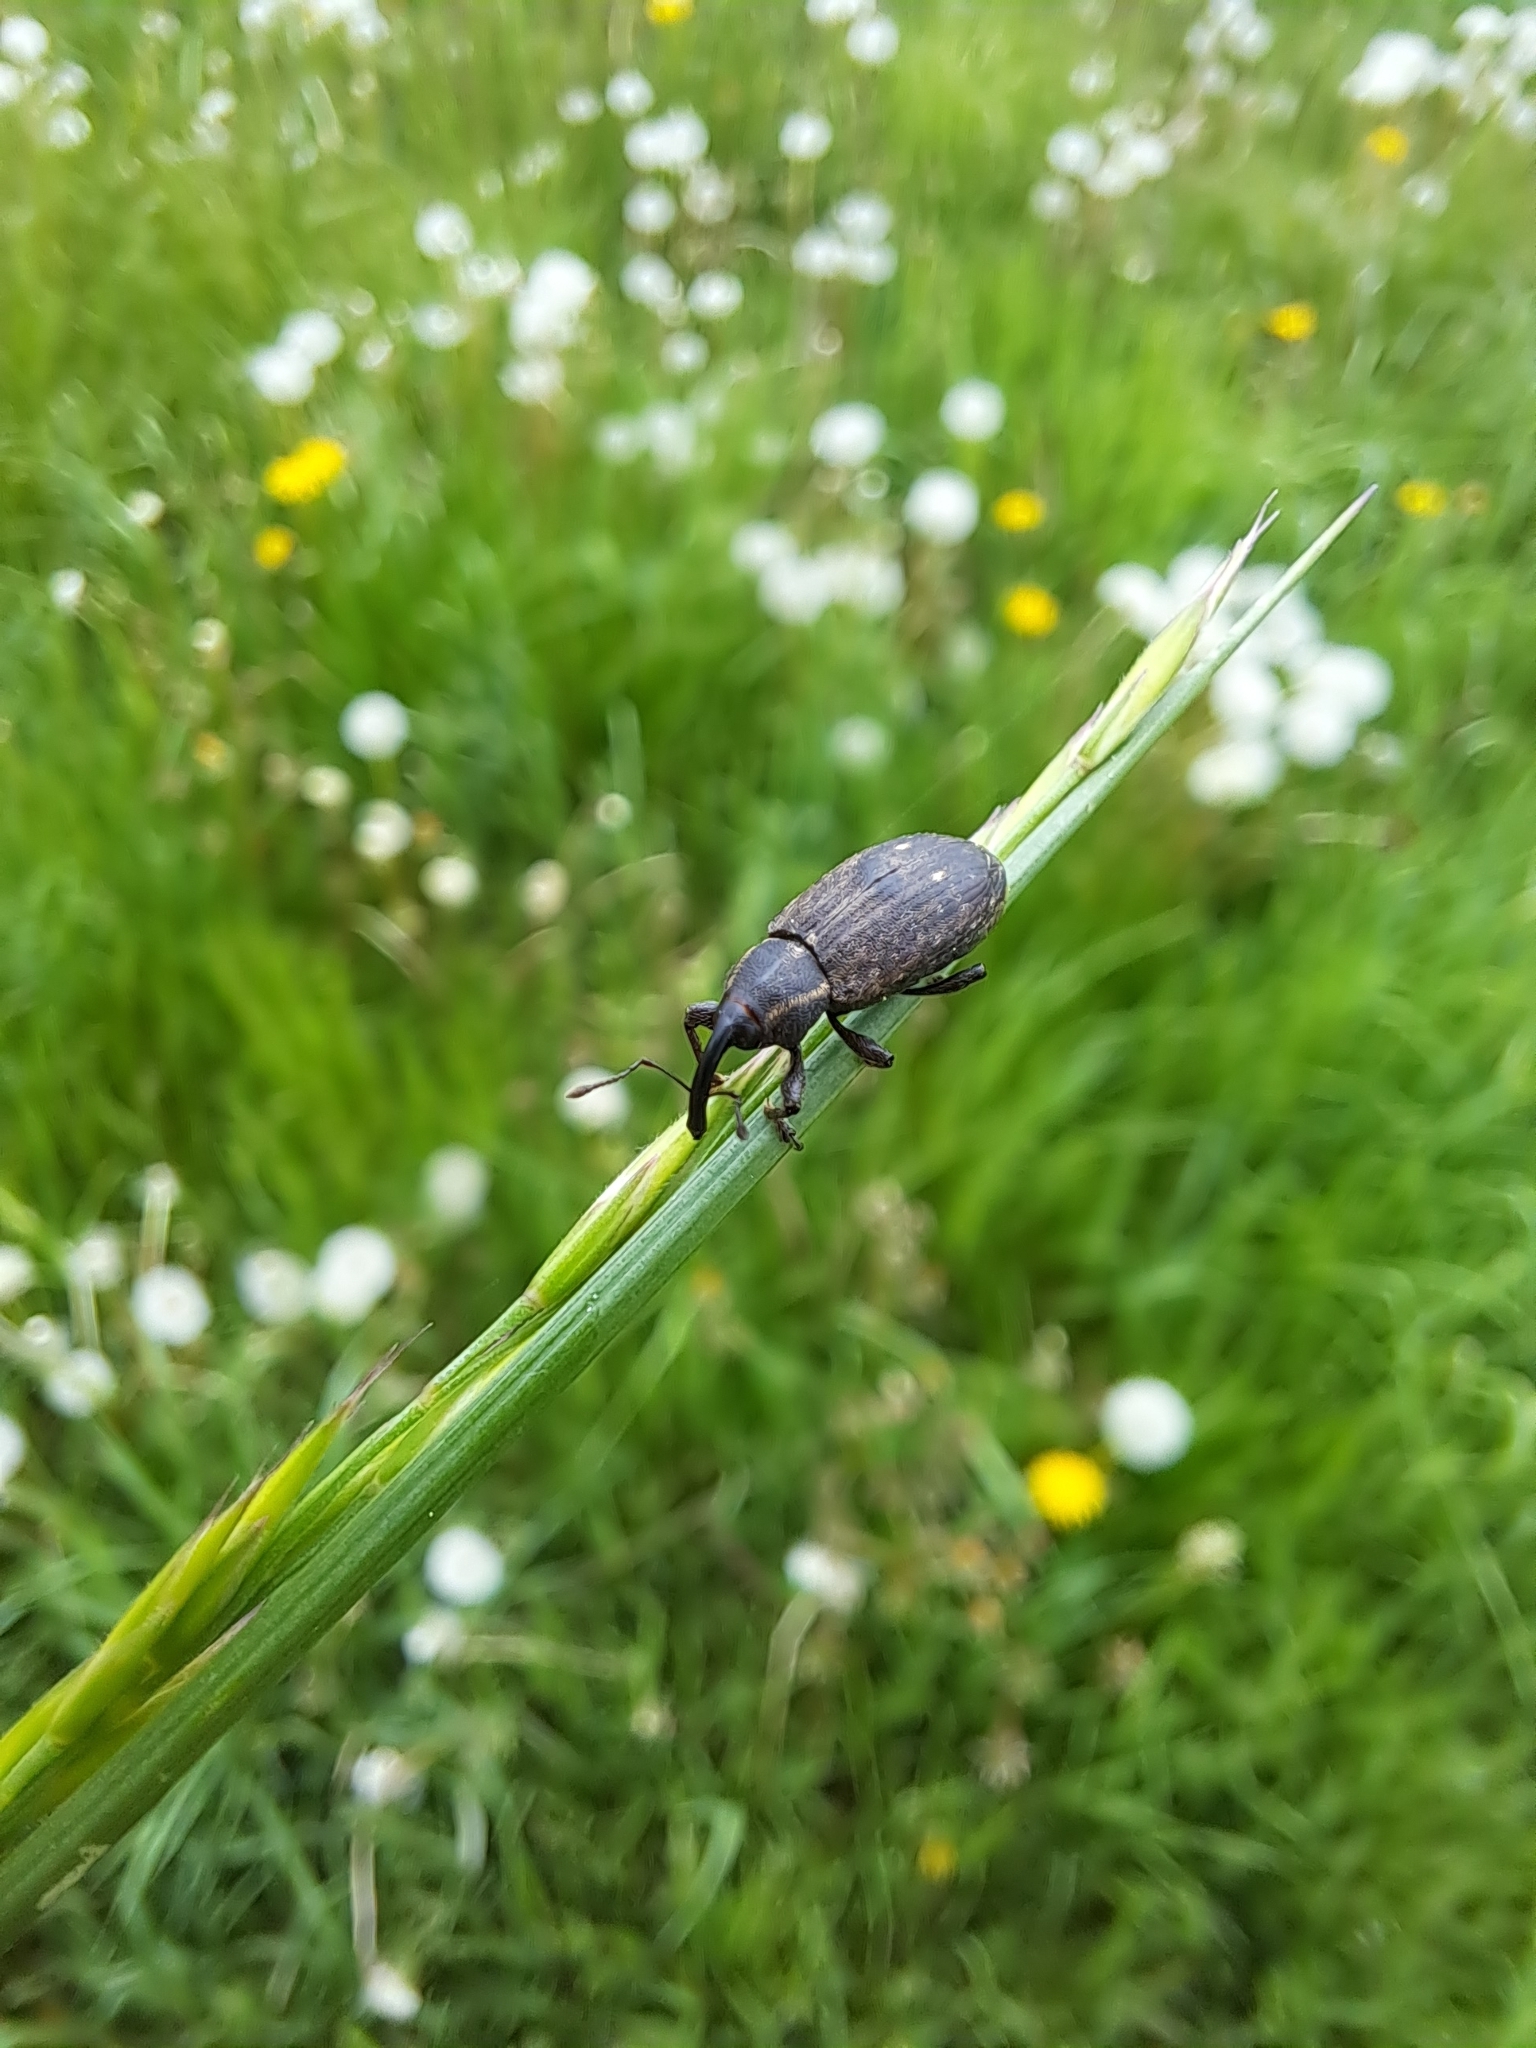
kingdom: Animalia
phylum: Arthropoda
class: Insecta
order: Coleoptera
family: Brachyceridae
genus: Tournotaris
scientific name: Tournotaris bimaculata
